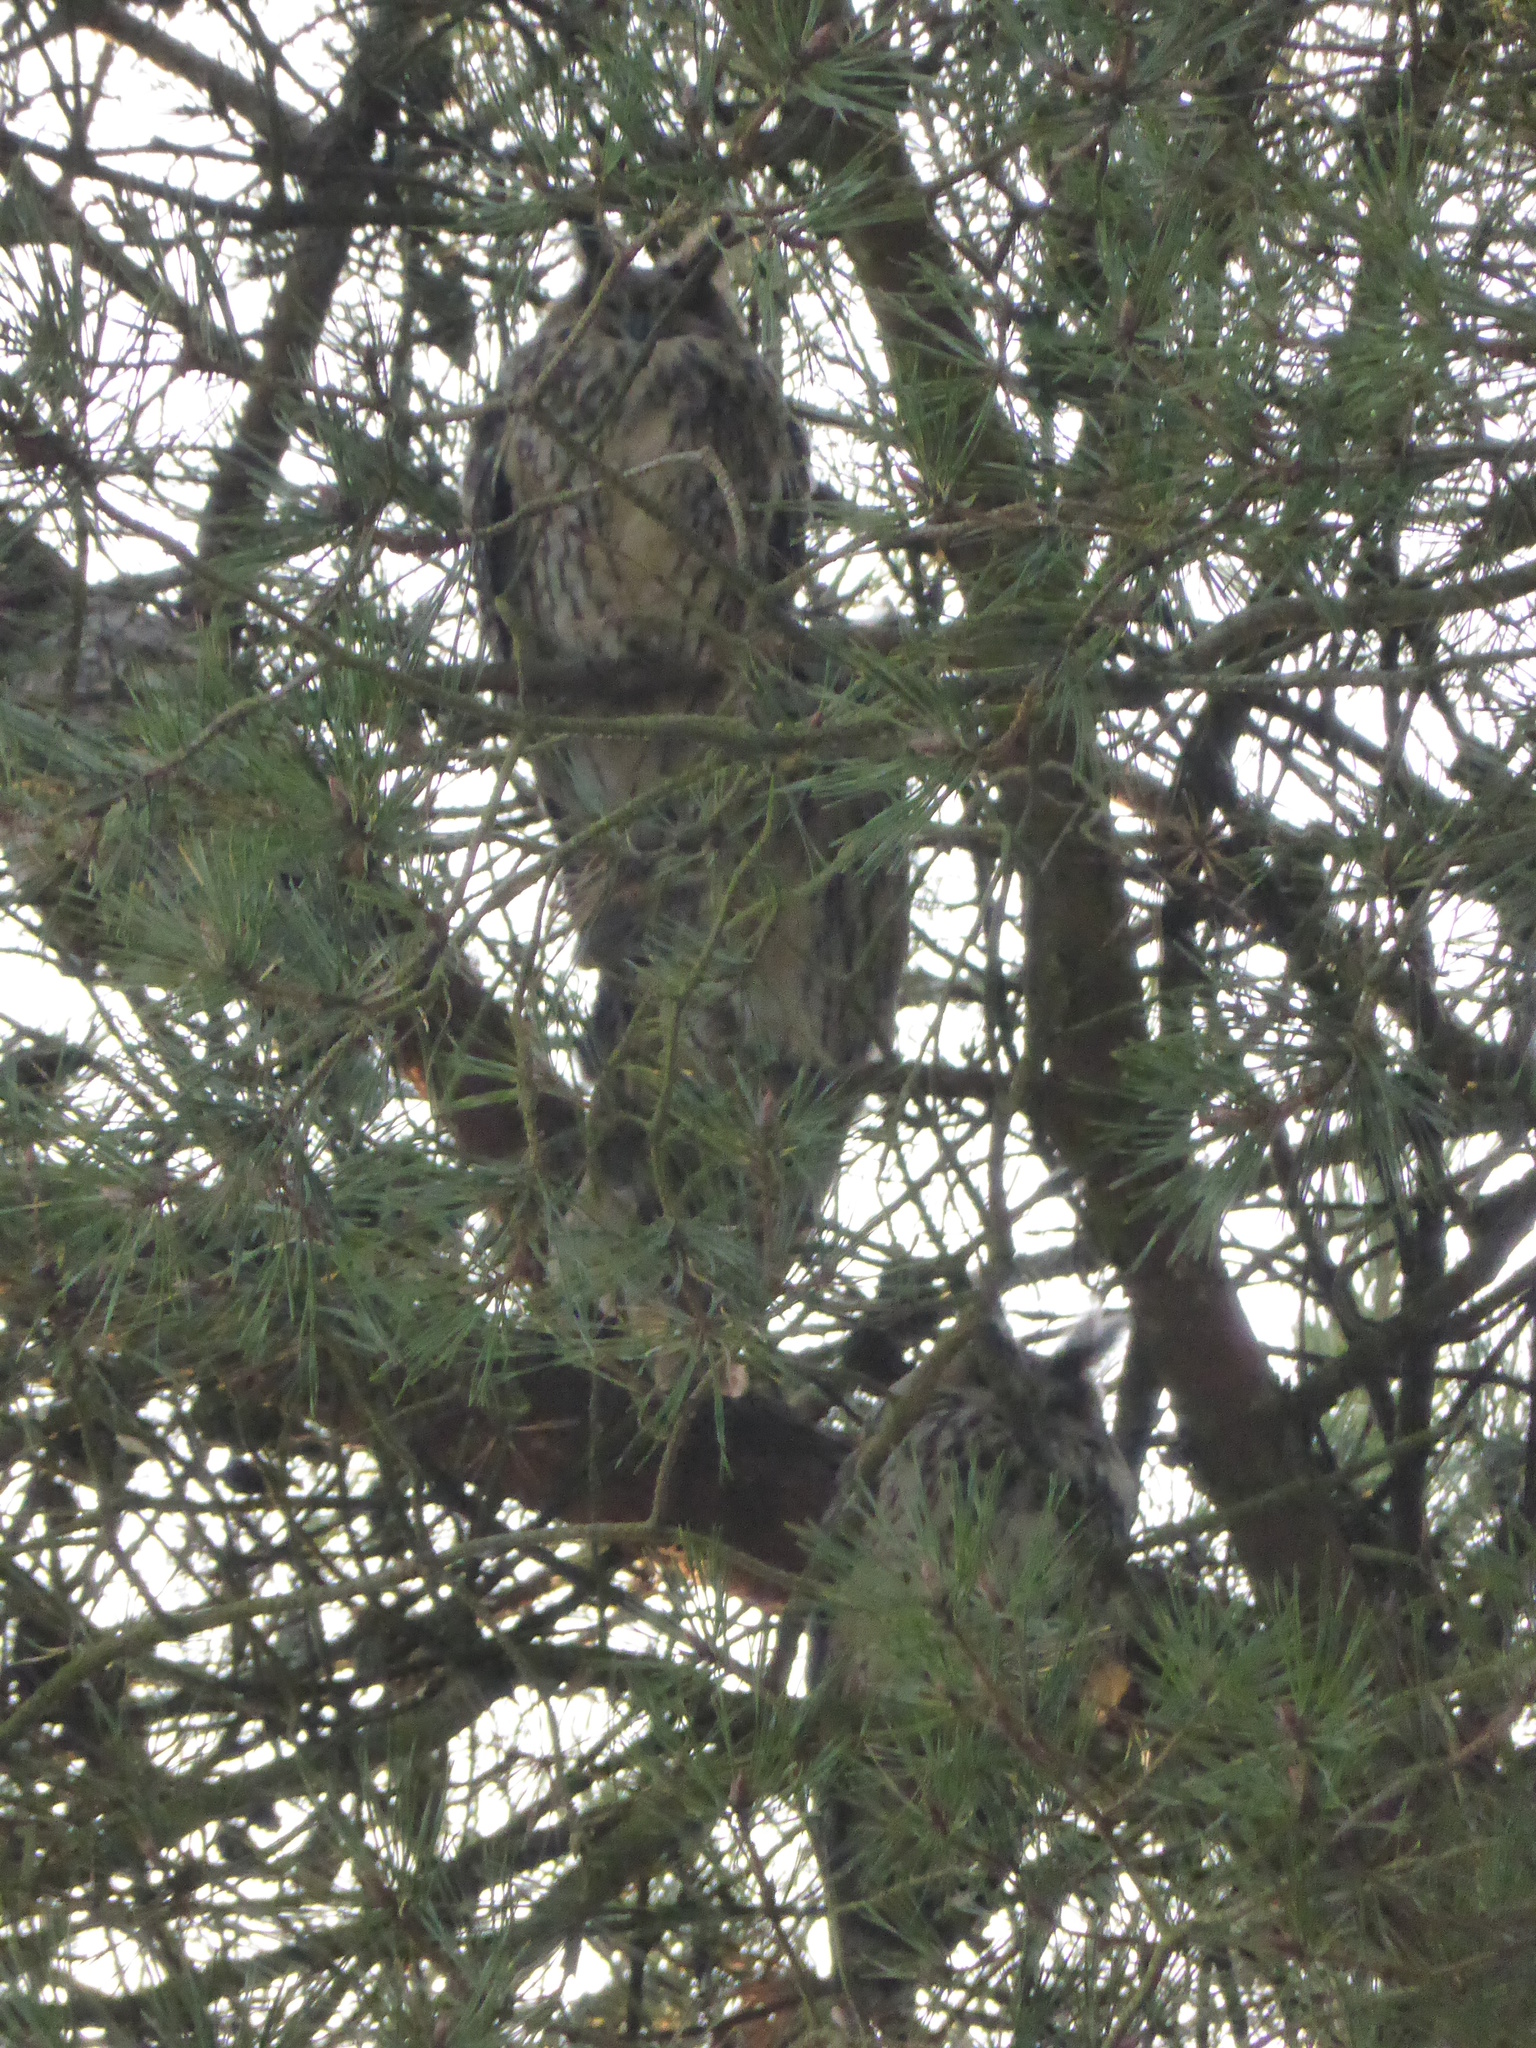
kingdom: Animalia
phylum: Chordata
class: Aves
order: Strigiformes
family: Strigidae
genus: Asio
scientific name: Asio otus
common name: Long-eared owl
